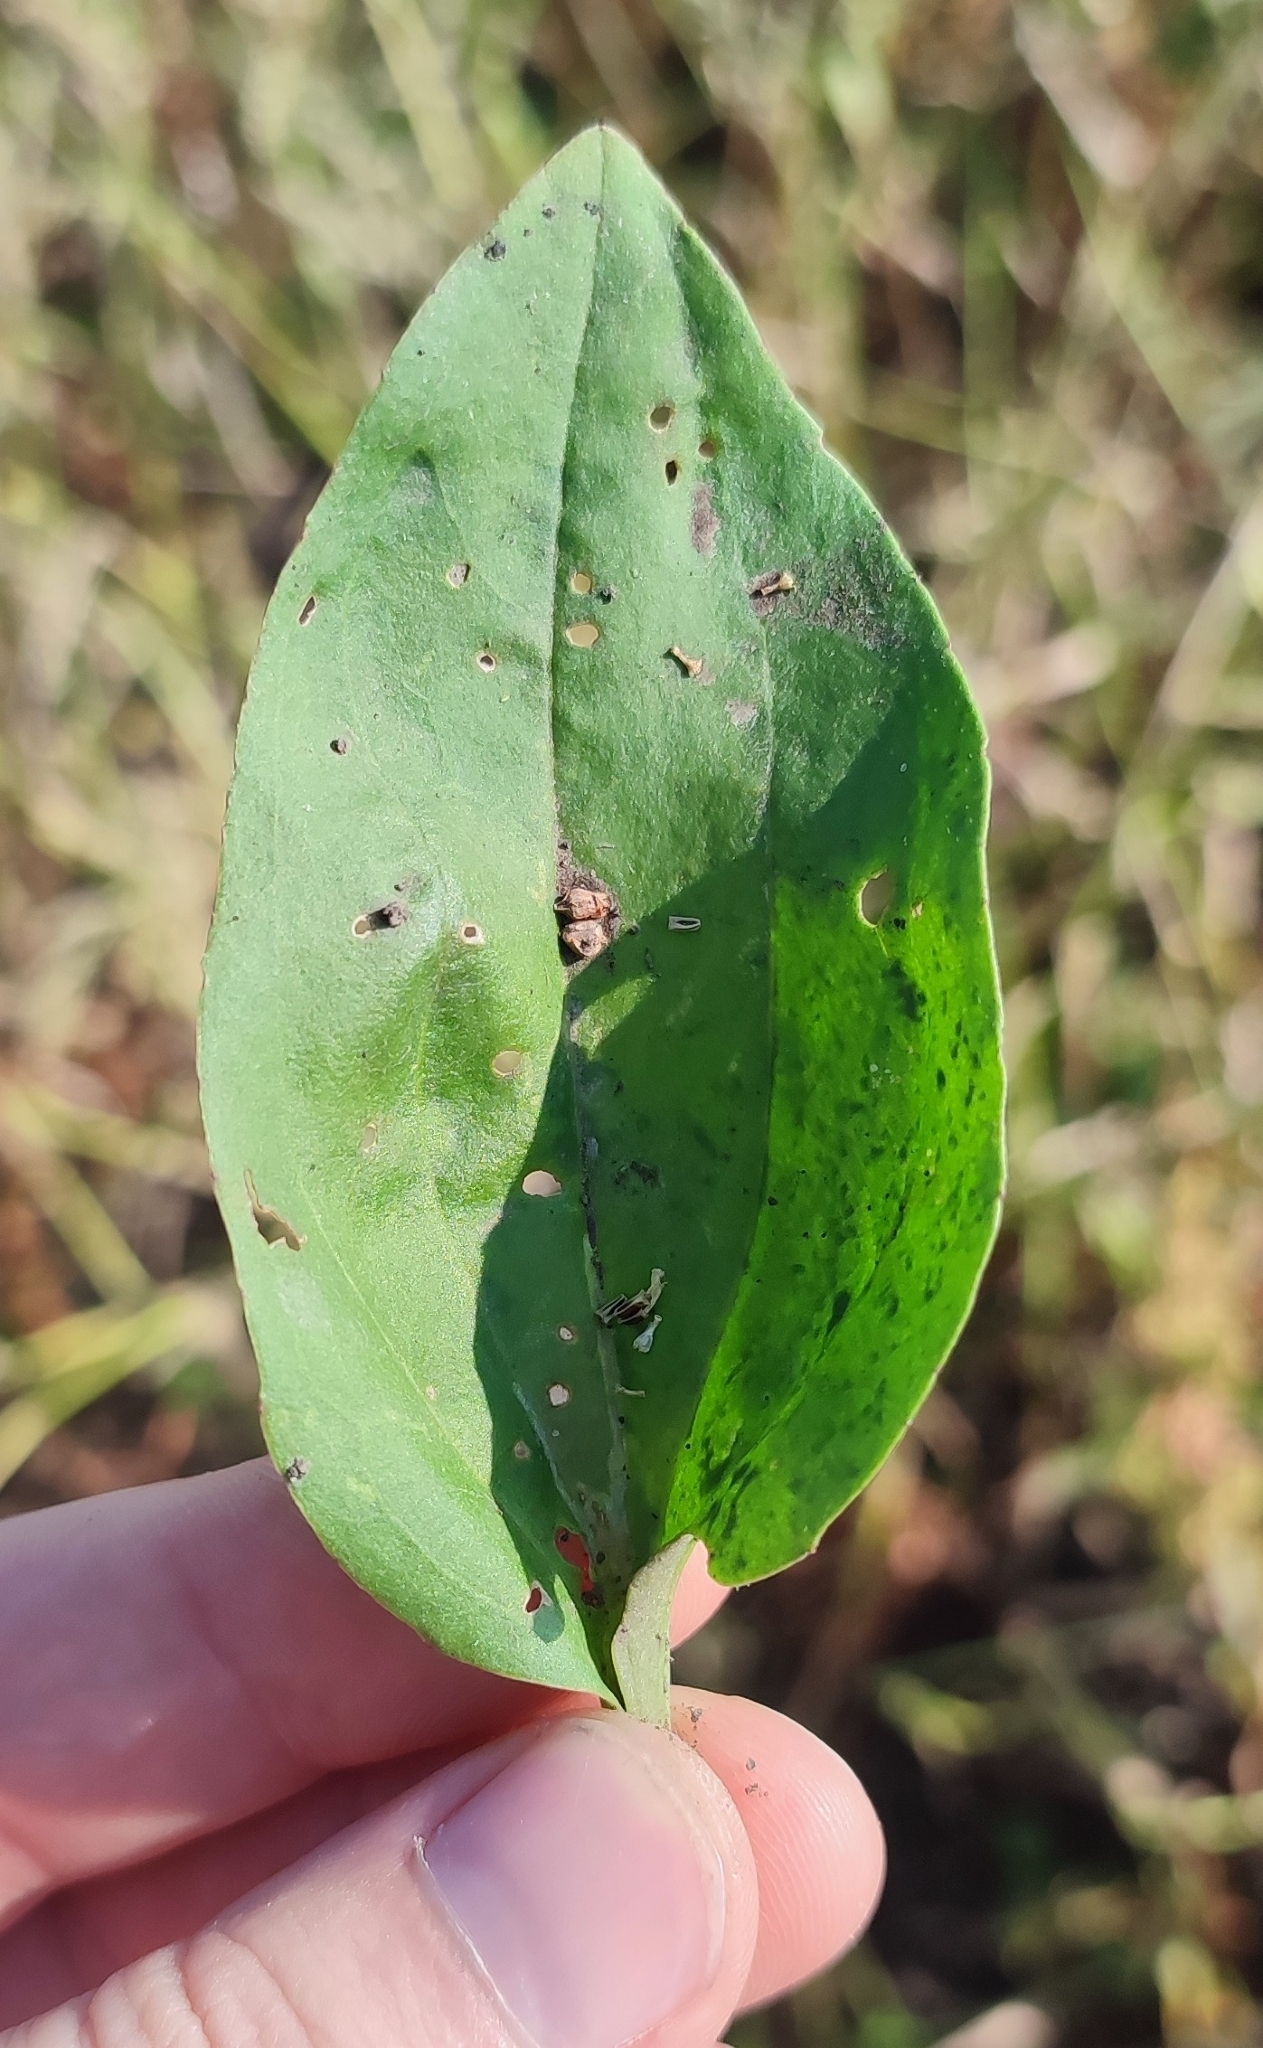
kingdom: Plantae
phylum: Tracheophyta
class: Magnoliopsida
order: Lamiales
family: Plantaginaceae
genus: Plantago
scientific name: Plantago major
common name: Common plantain
